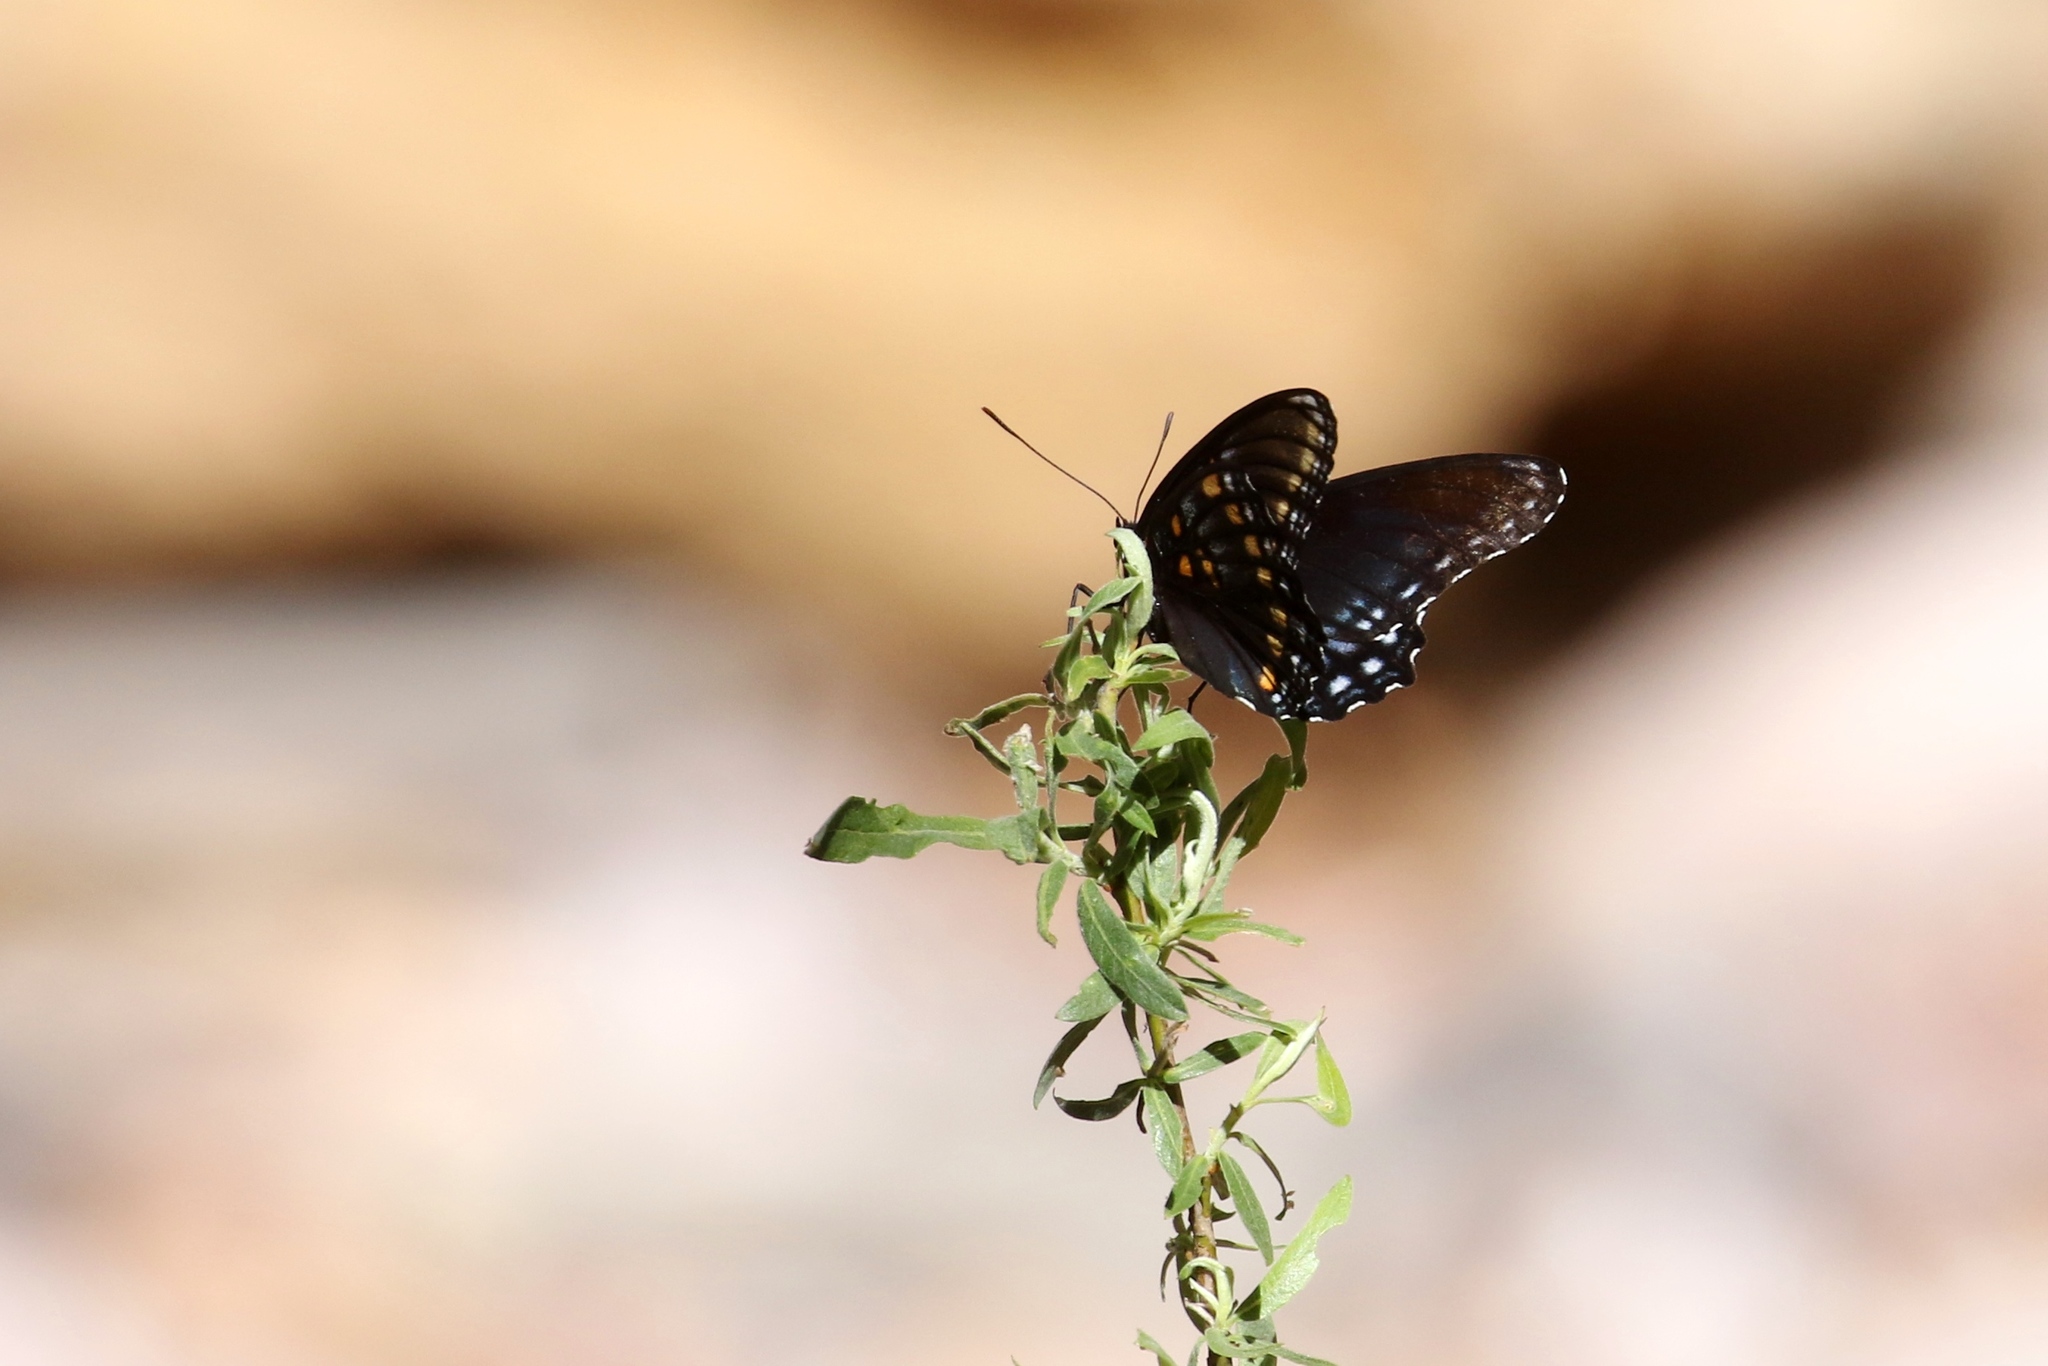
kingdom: Animalia
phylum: Arthropoda
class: Insecta
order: Lepidoptera
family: Nymphalidae
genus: Limenitis
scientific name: Limenitis arthemis
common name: Red-spotted admiral
